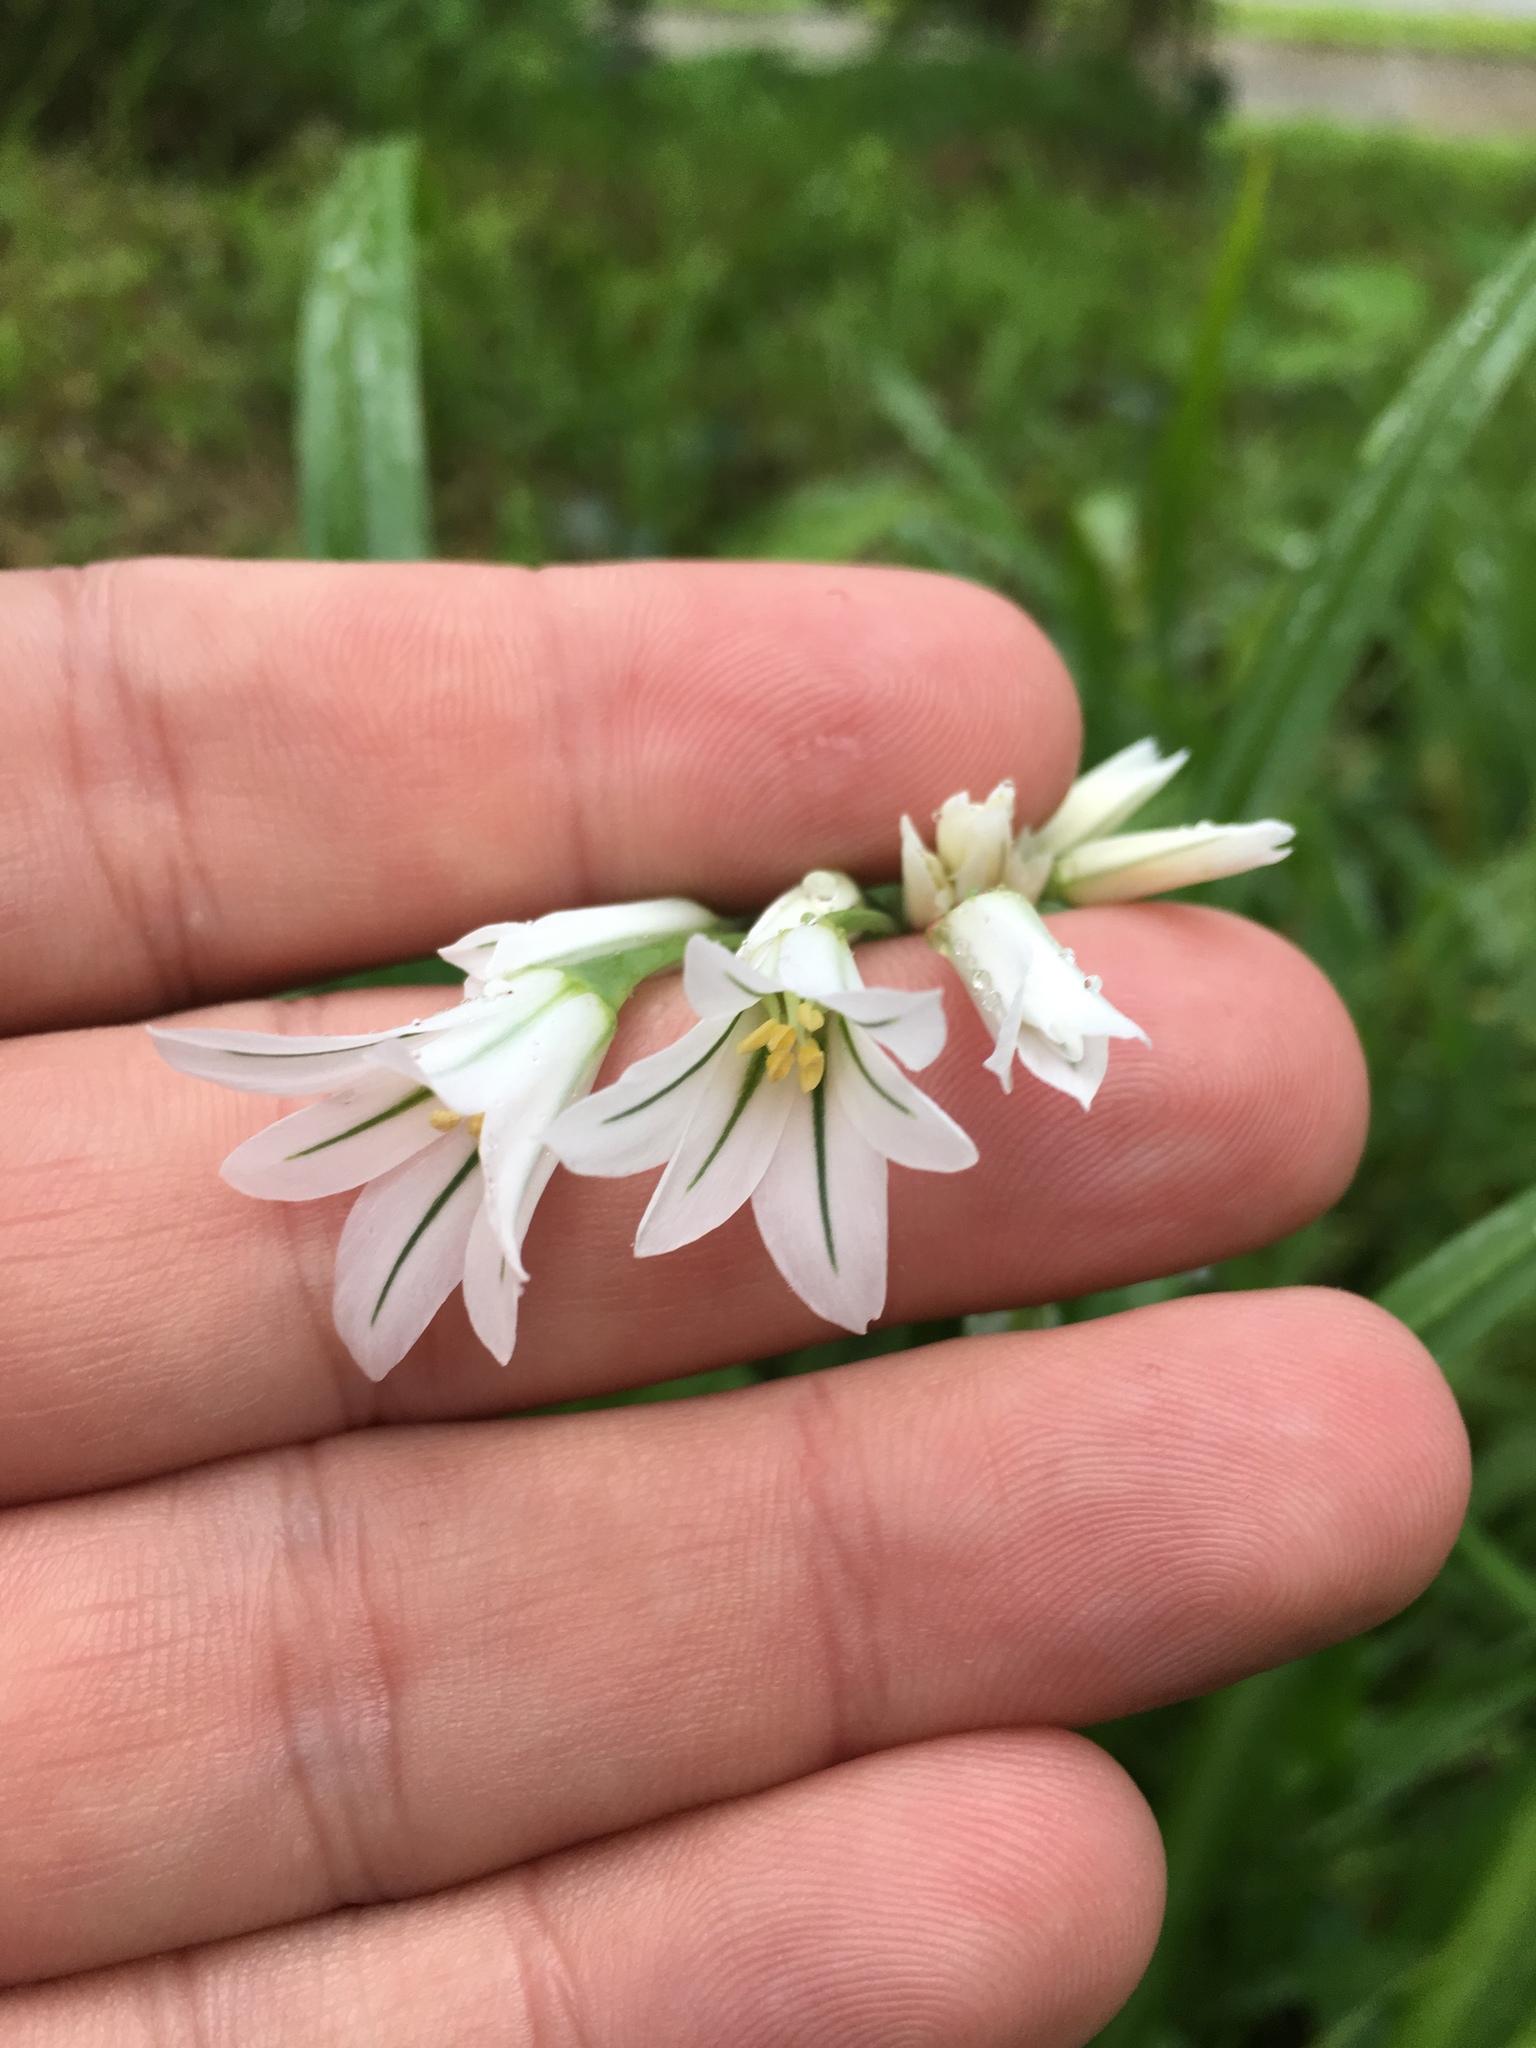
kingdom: Plantae
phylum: Tracheophyta
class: Liliopsida
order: Asparagales
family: Amaryllidaceae
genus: Allium
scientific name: Allium triquetrum
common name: Three-cornered garlic
